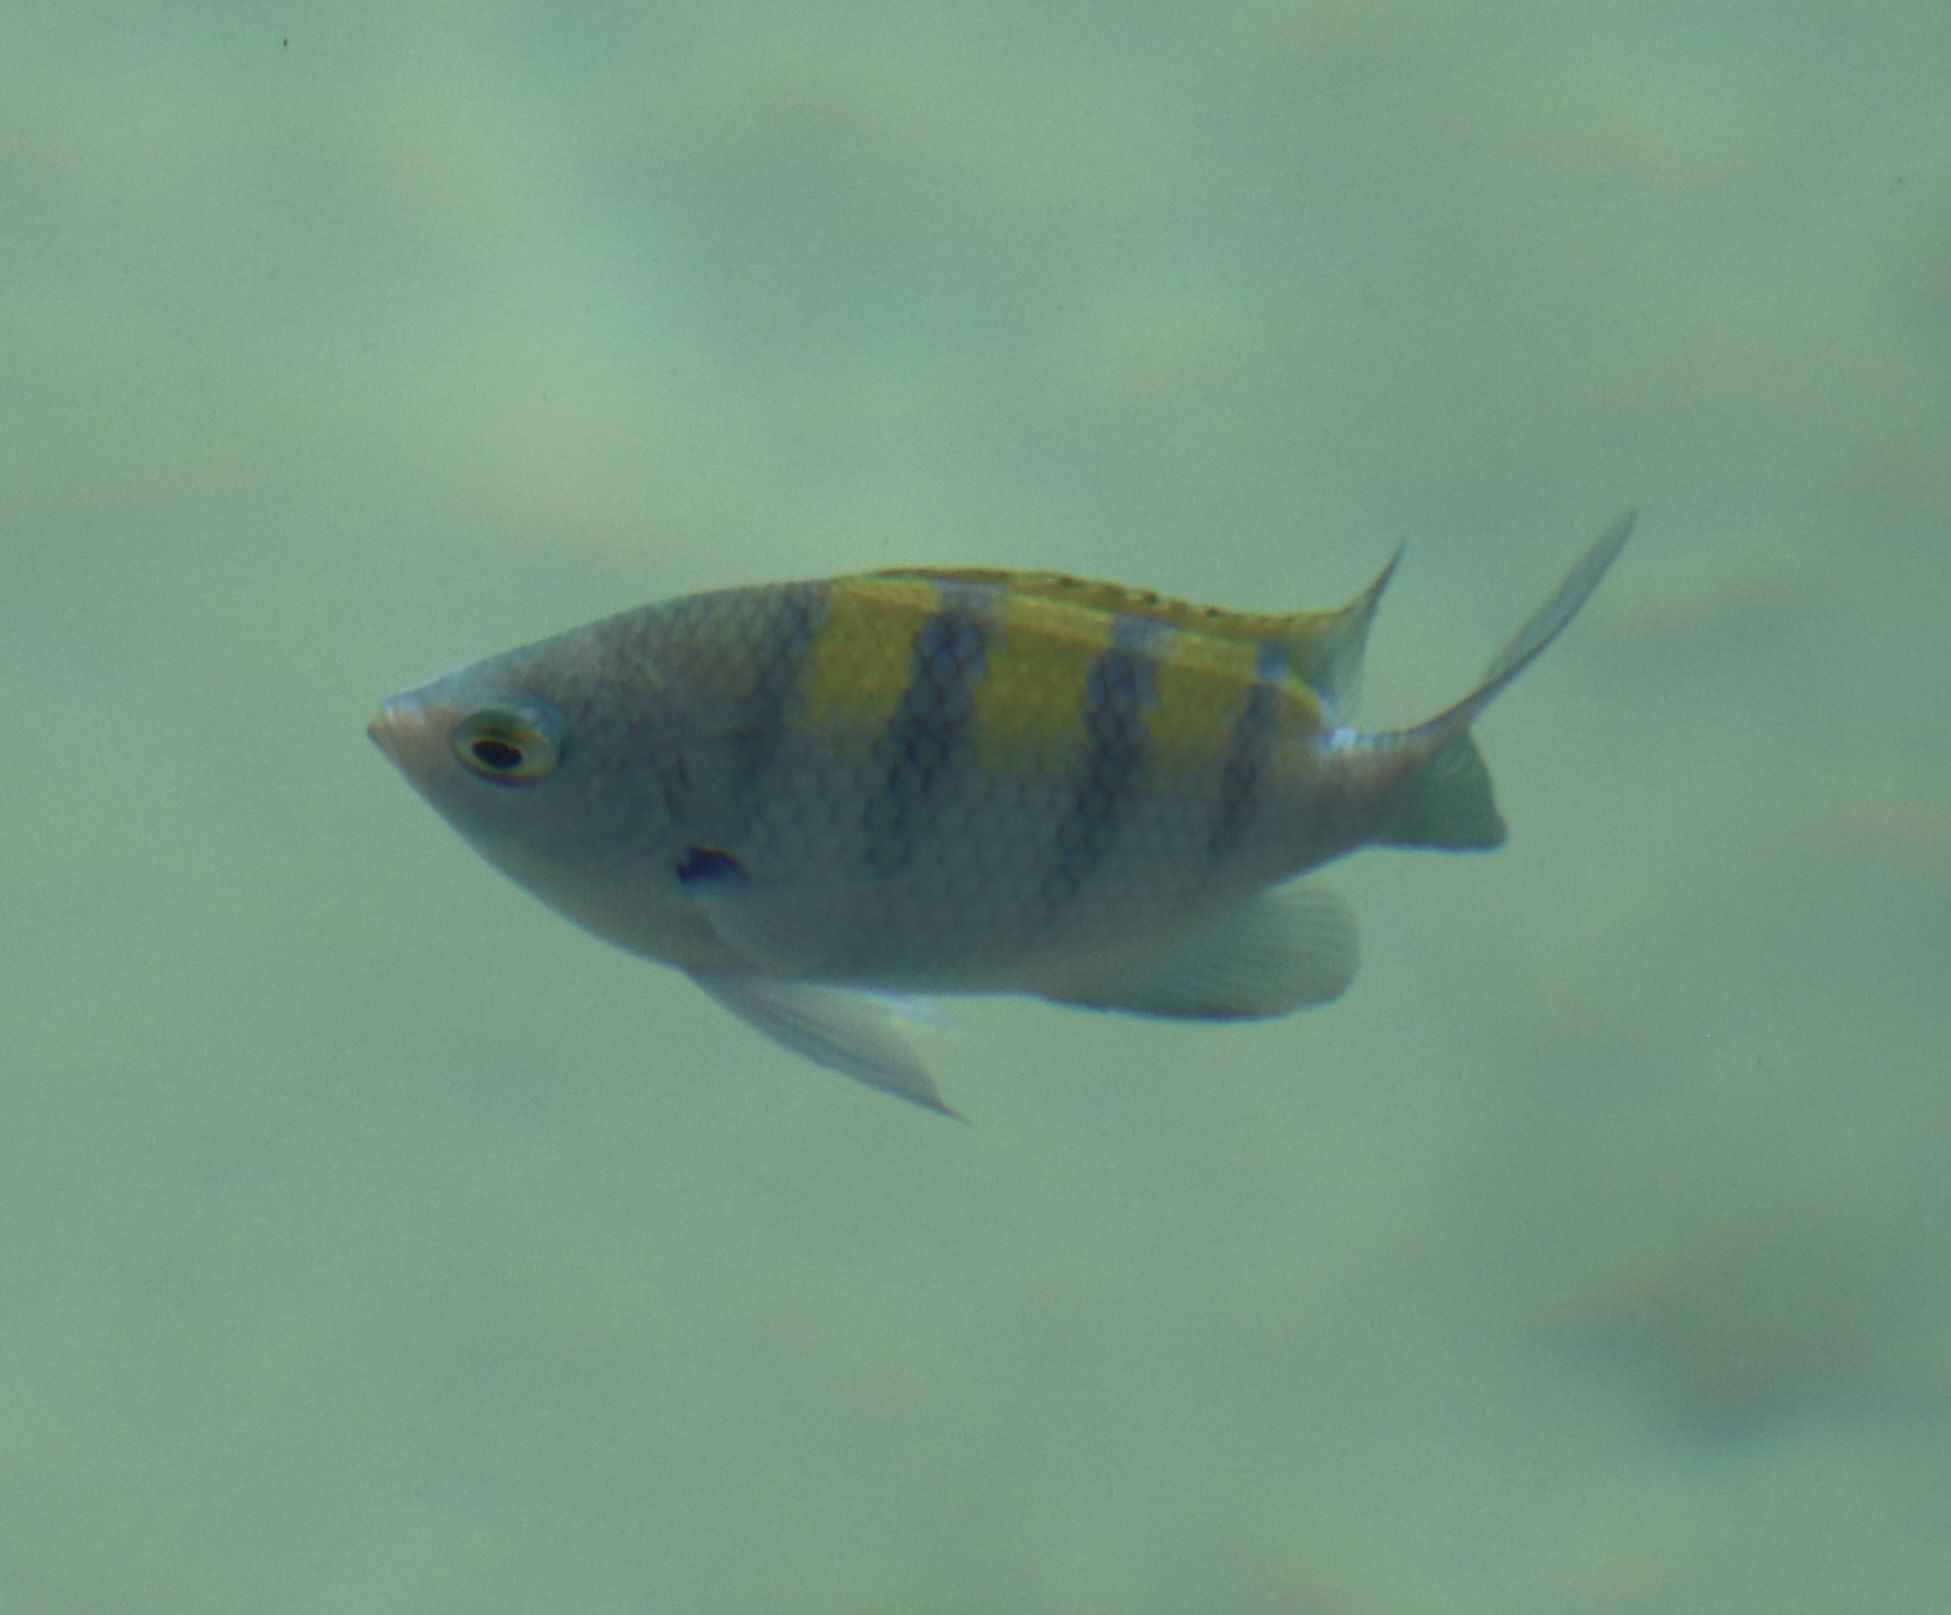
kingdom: Animalia
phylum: Chordata
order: Perciformes
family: Pomacentridae
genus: Abudefduf
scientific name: Abudefduf troschelii
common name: Panamic sergeant major
